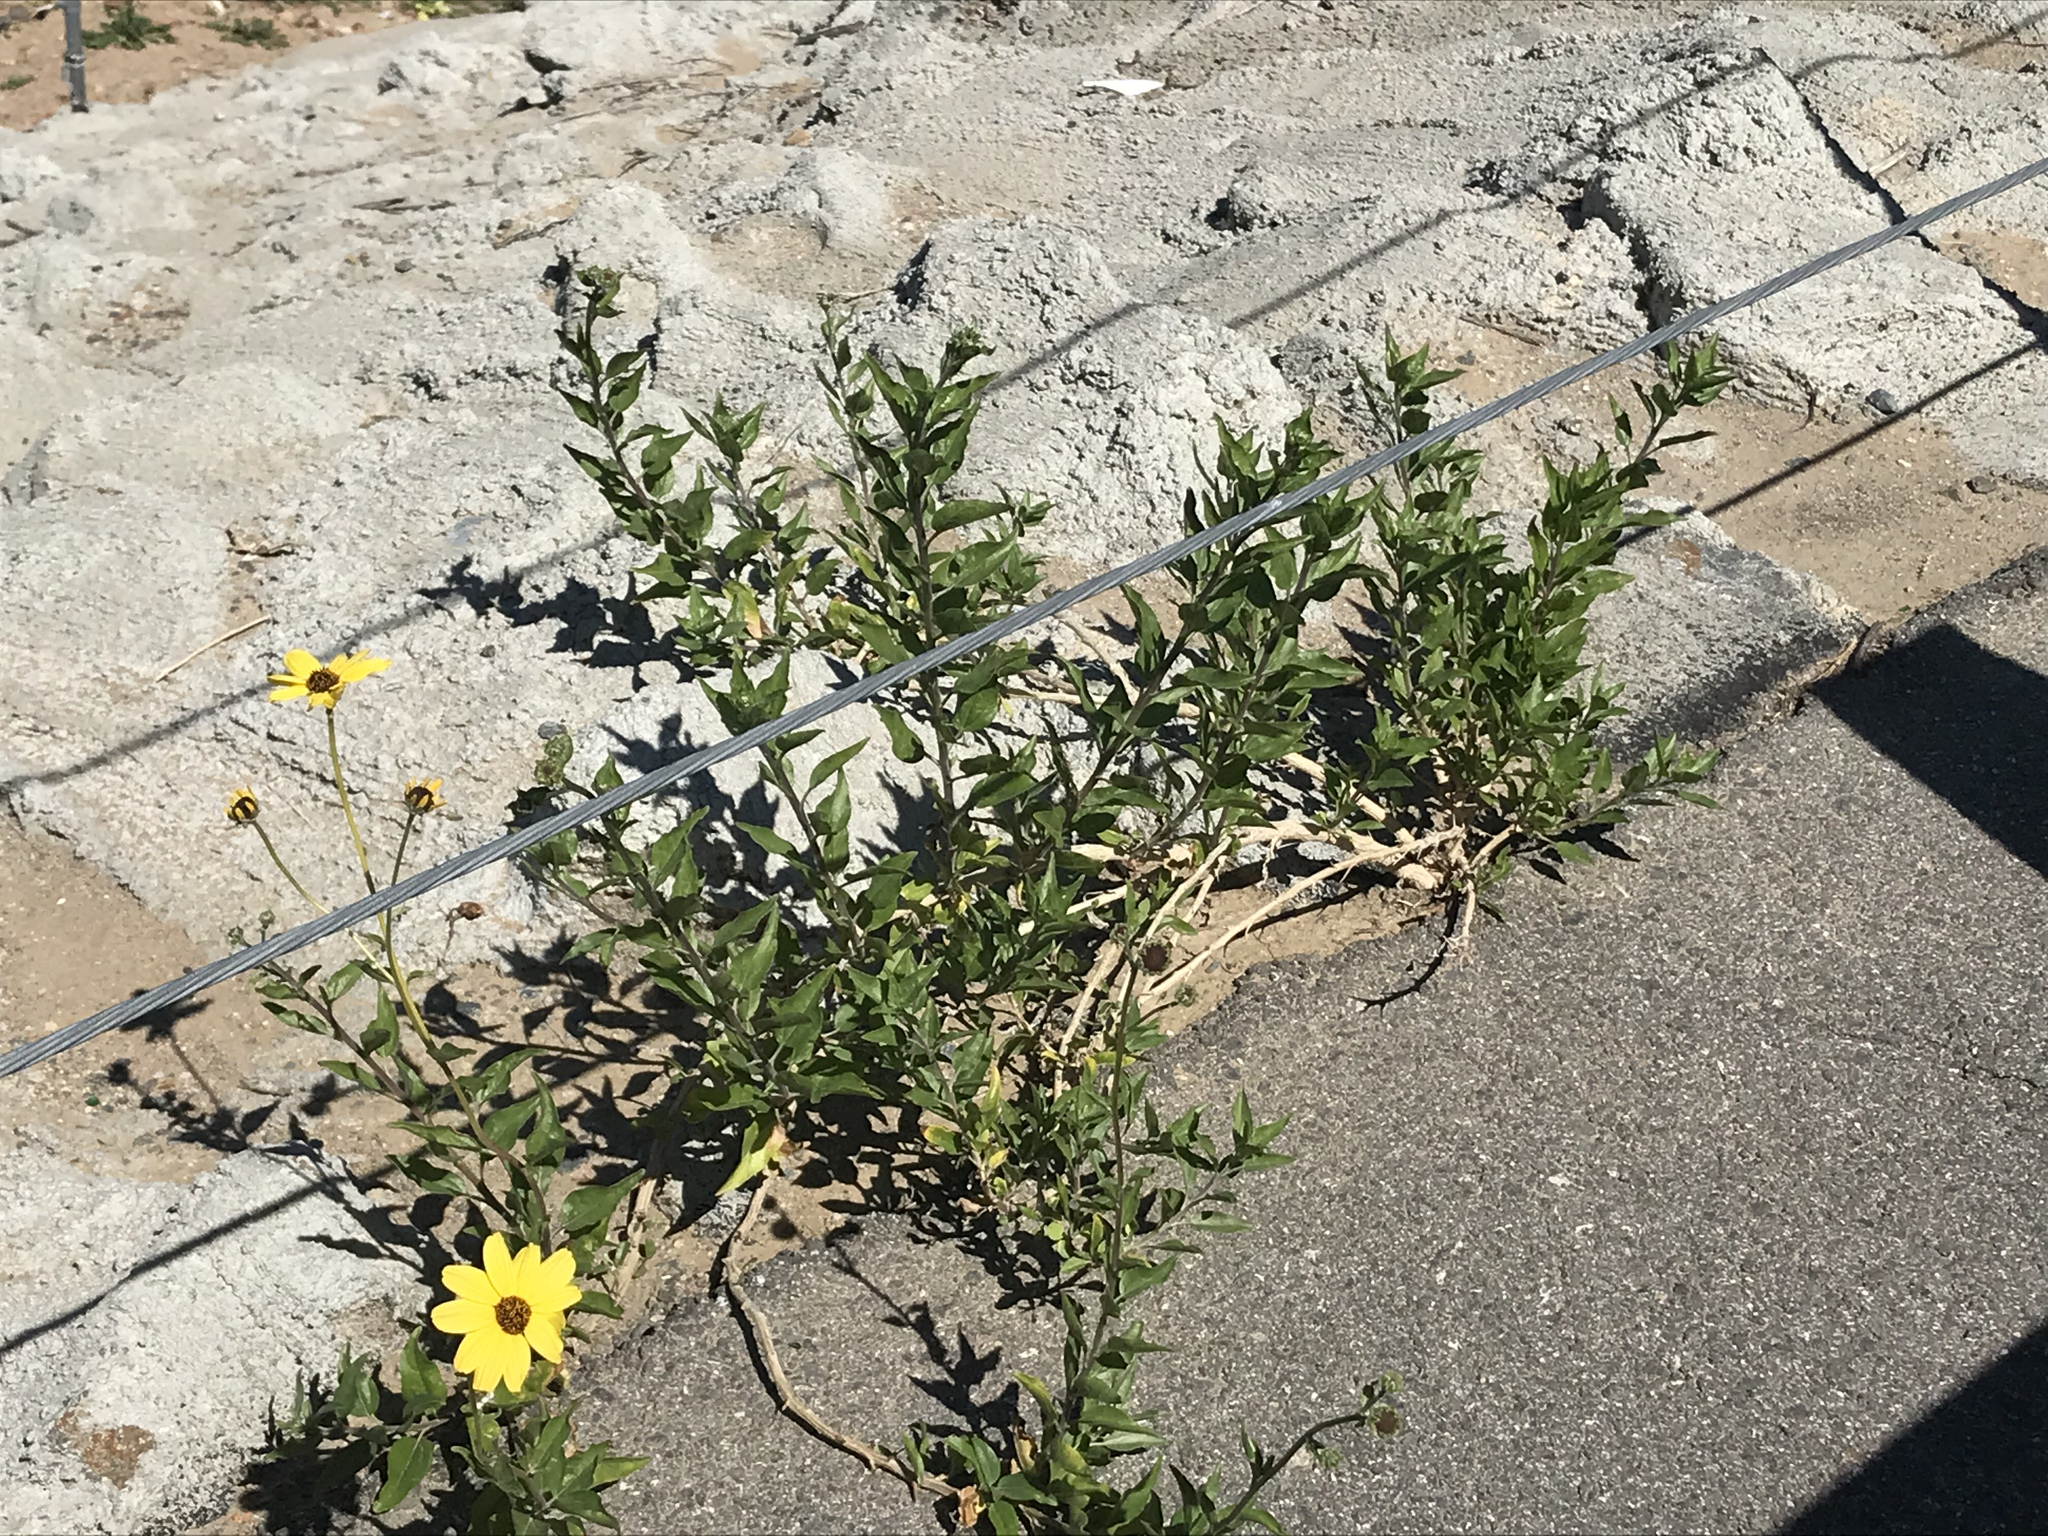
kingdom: Plantae
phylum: Tracheophyta
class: Magnoliopsida
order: Asterales
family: Asteraceae
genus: Encelia
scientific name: Encelia californica
